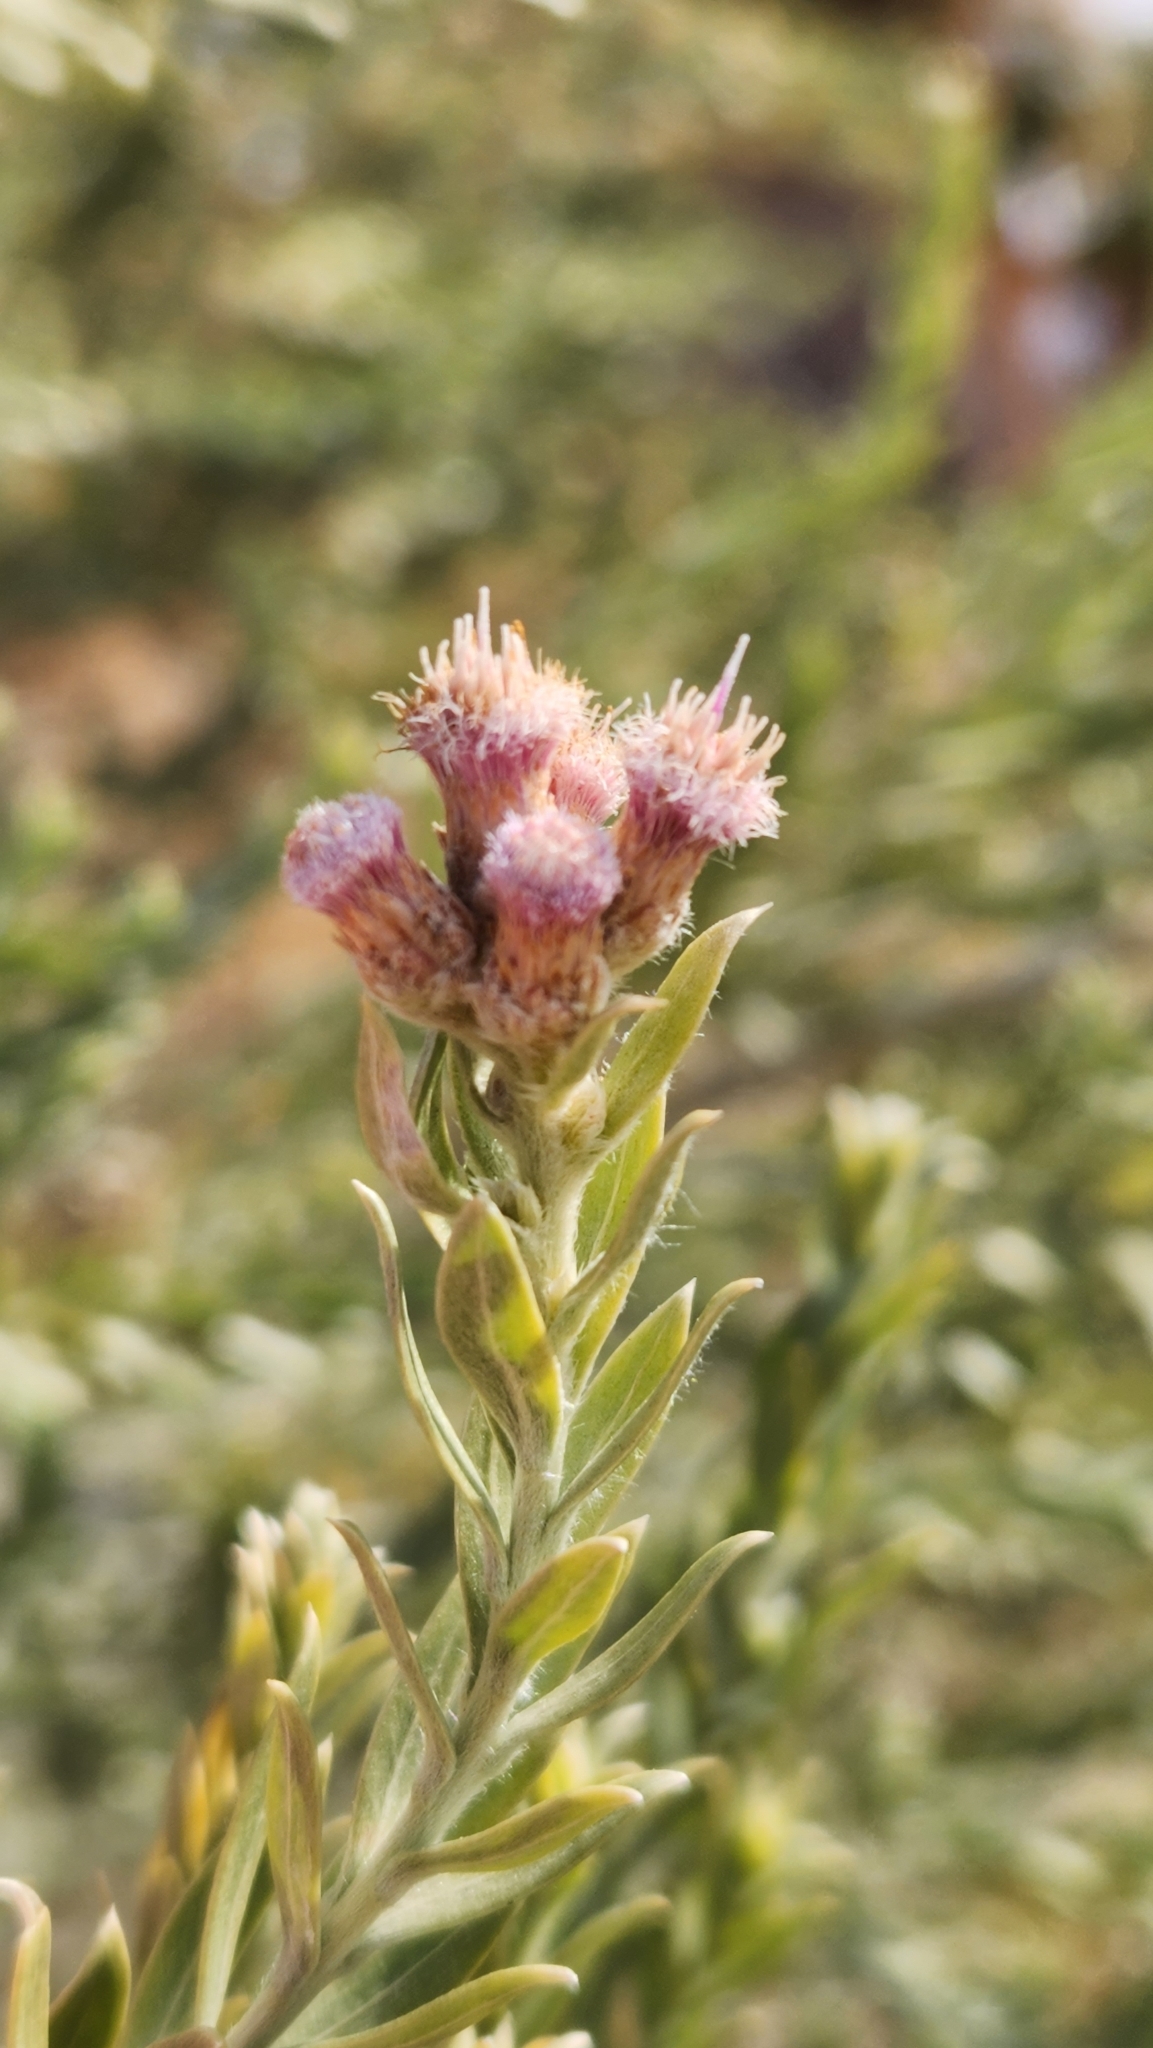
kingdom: Plantae
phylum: Tracheophyta
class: Magnoliopsida
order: Asterales
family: Asteraceae
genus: Pluchea
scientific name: Pluchea sericea
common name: Arrow-weed
